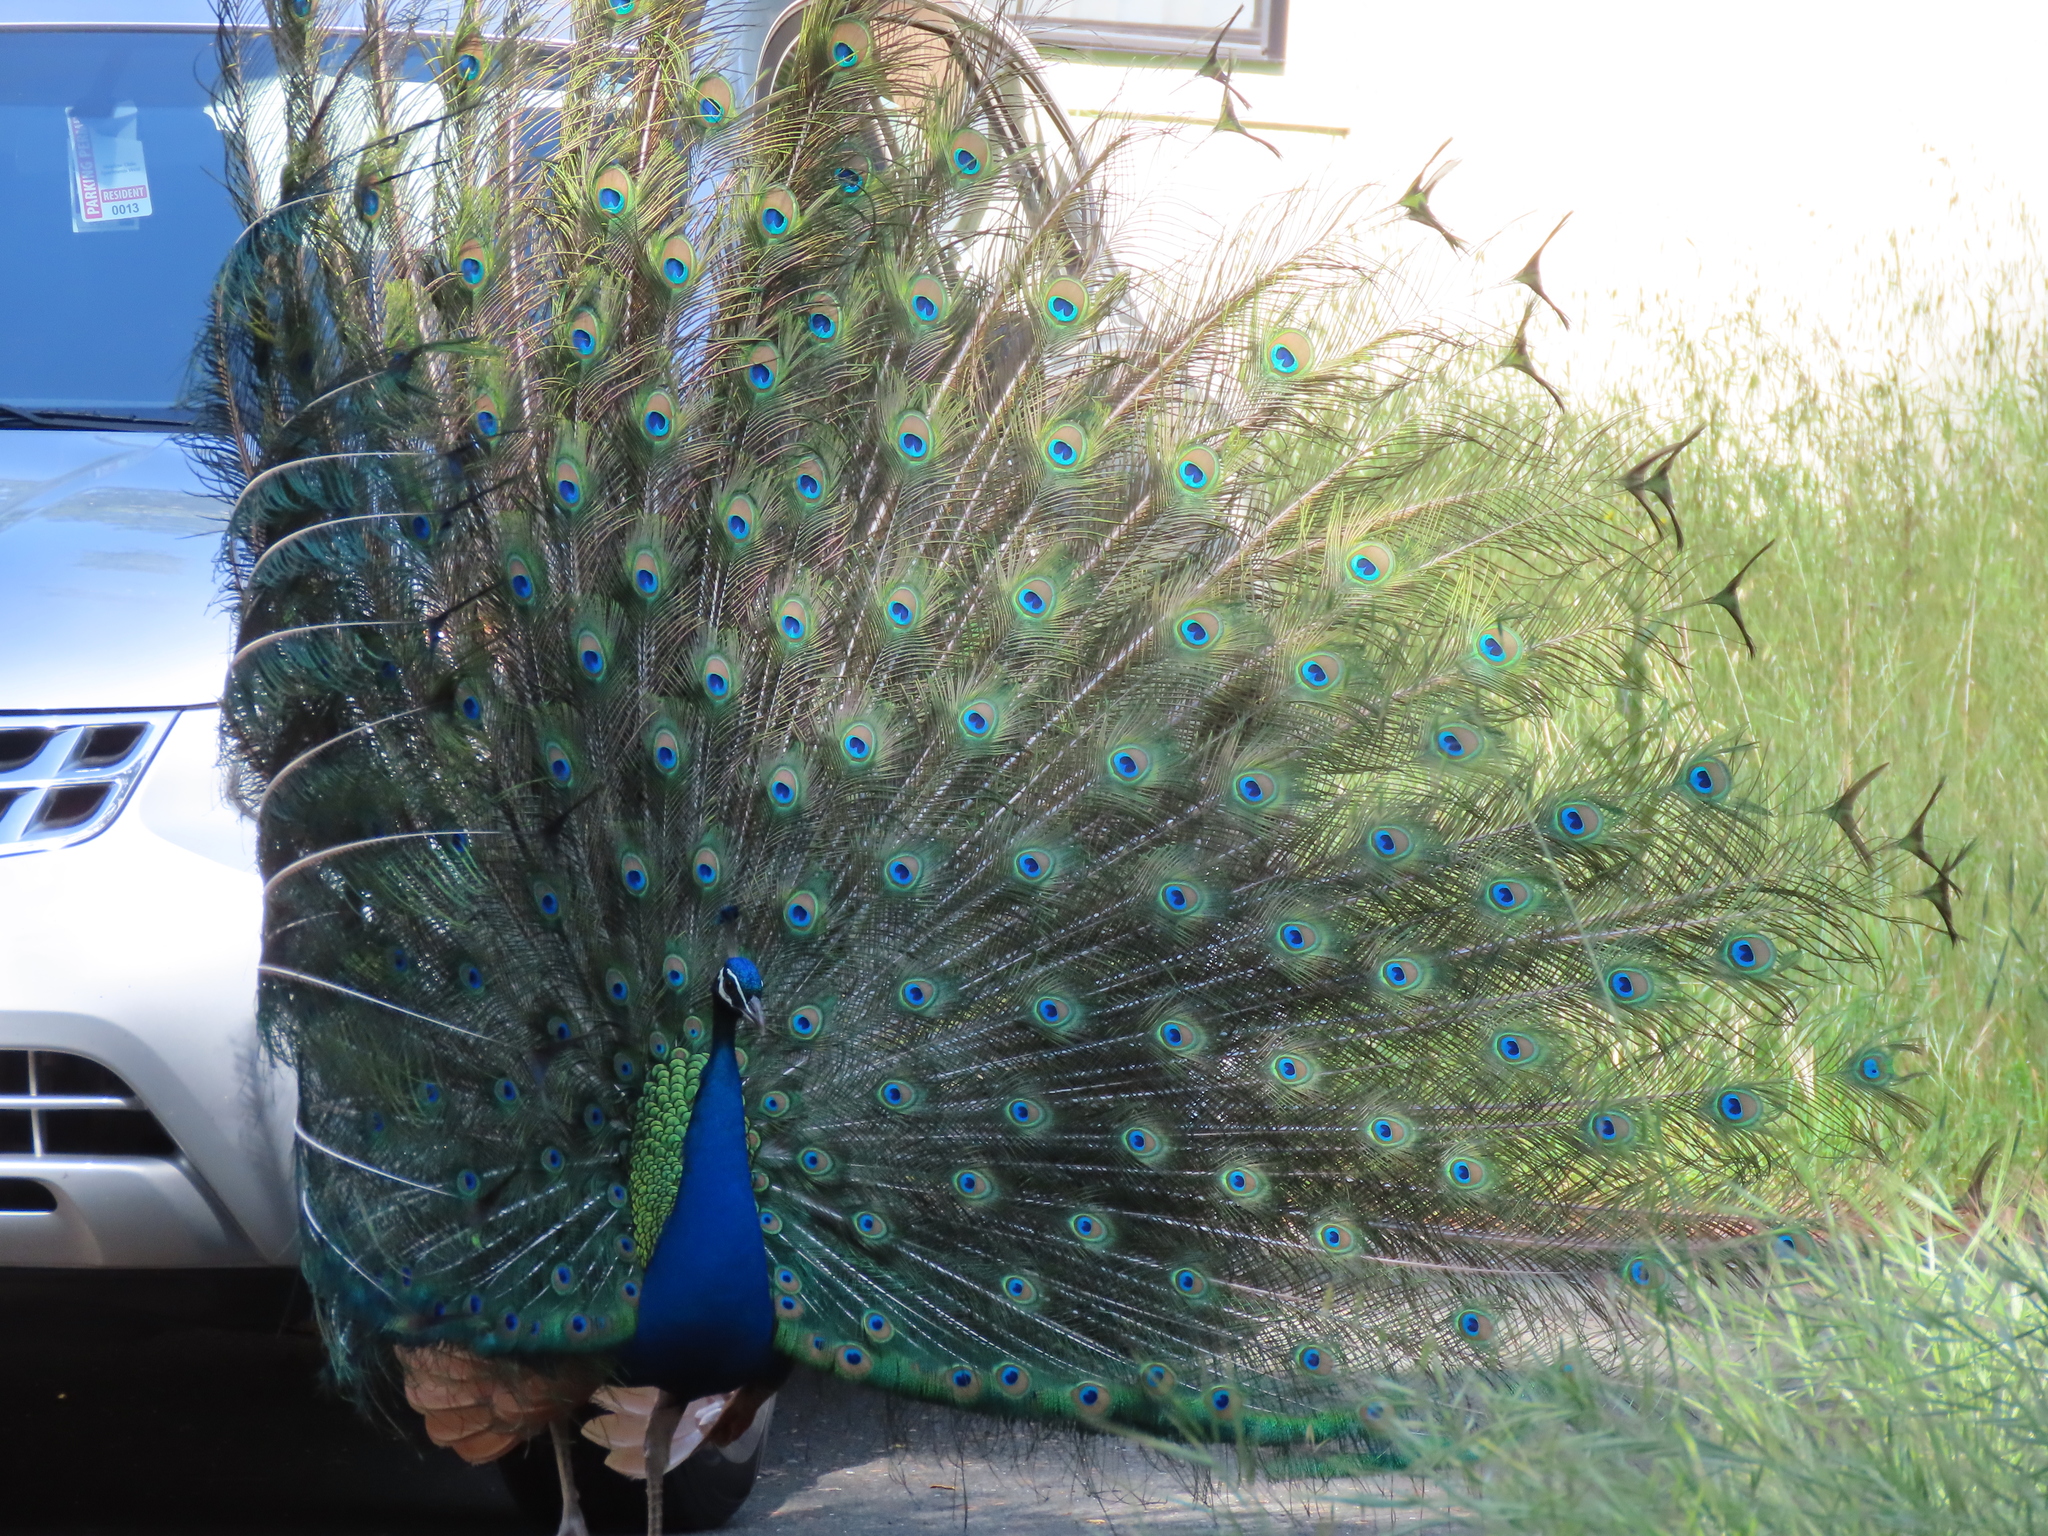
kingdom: Animalia
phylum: Chordata
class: Aves
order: Galliformes
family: Phasianidae
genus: Pavo
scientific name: Pavo cristatus
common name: Indian peafowl
